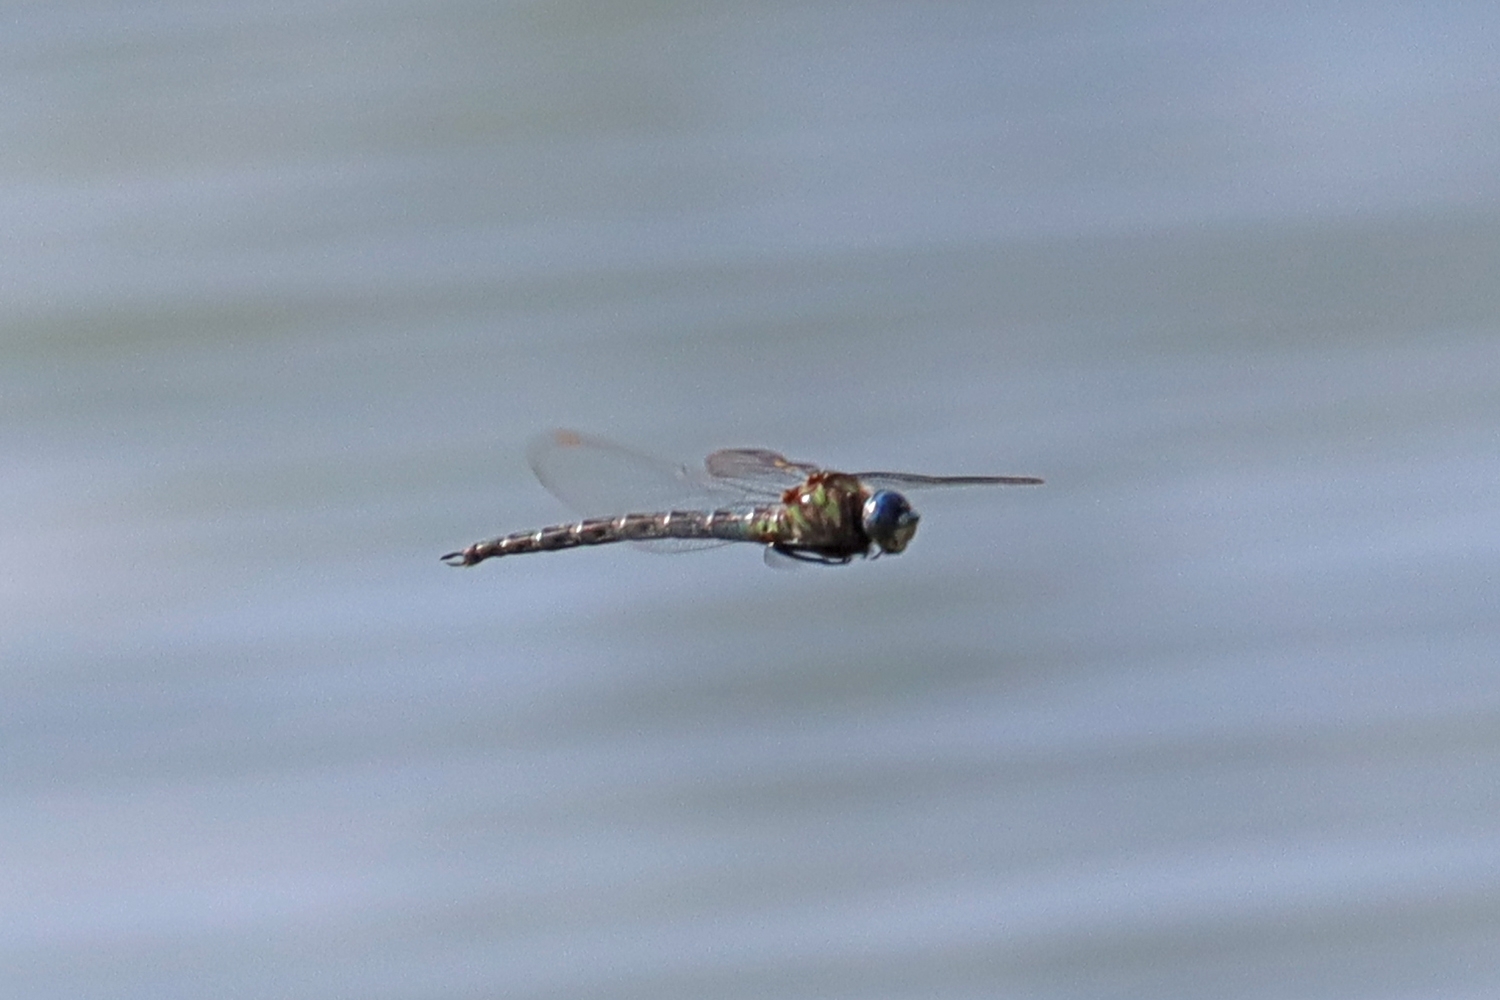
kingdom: Animalia
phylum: Arthropoda
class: Insecta
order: Odonata
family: Aeshnidae
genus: Nasiaeschna
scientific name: Nasiaeschna pentacantha
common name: Cyrano darner
